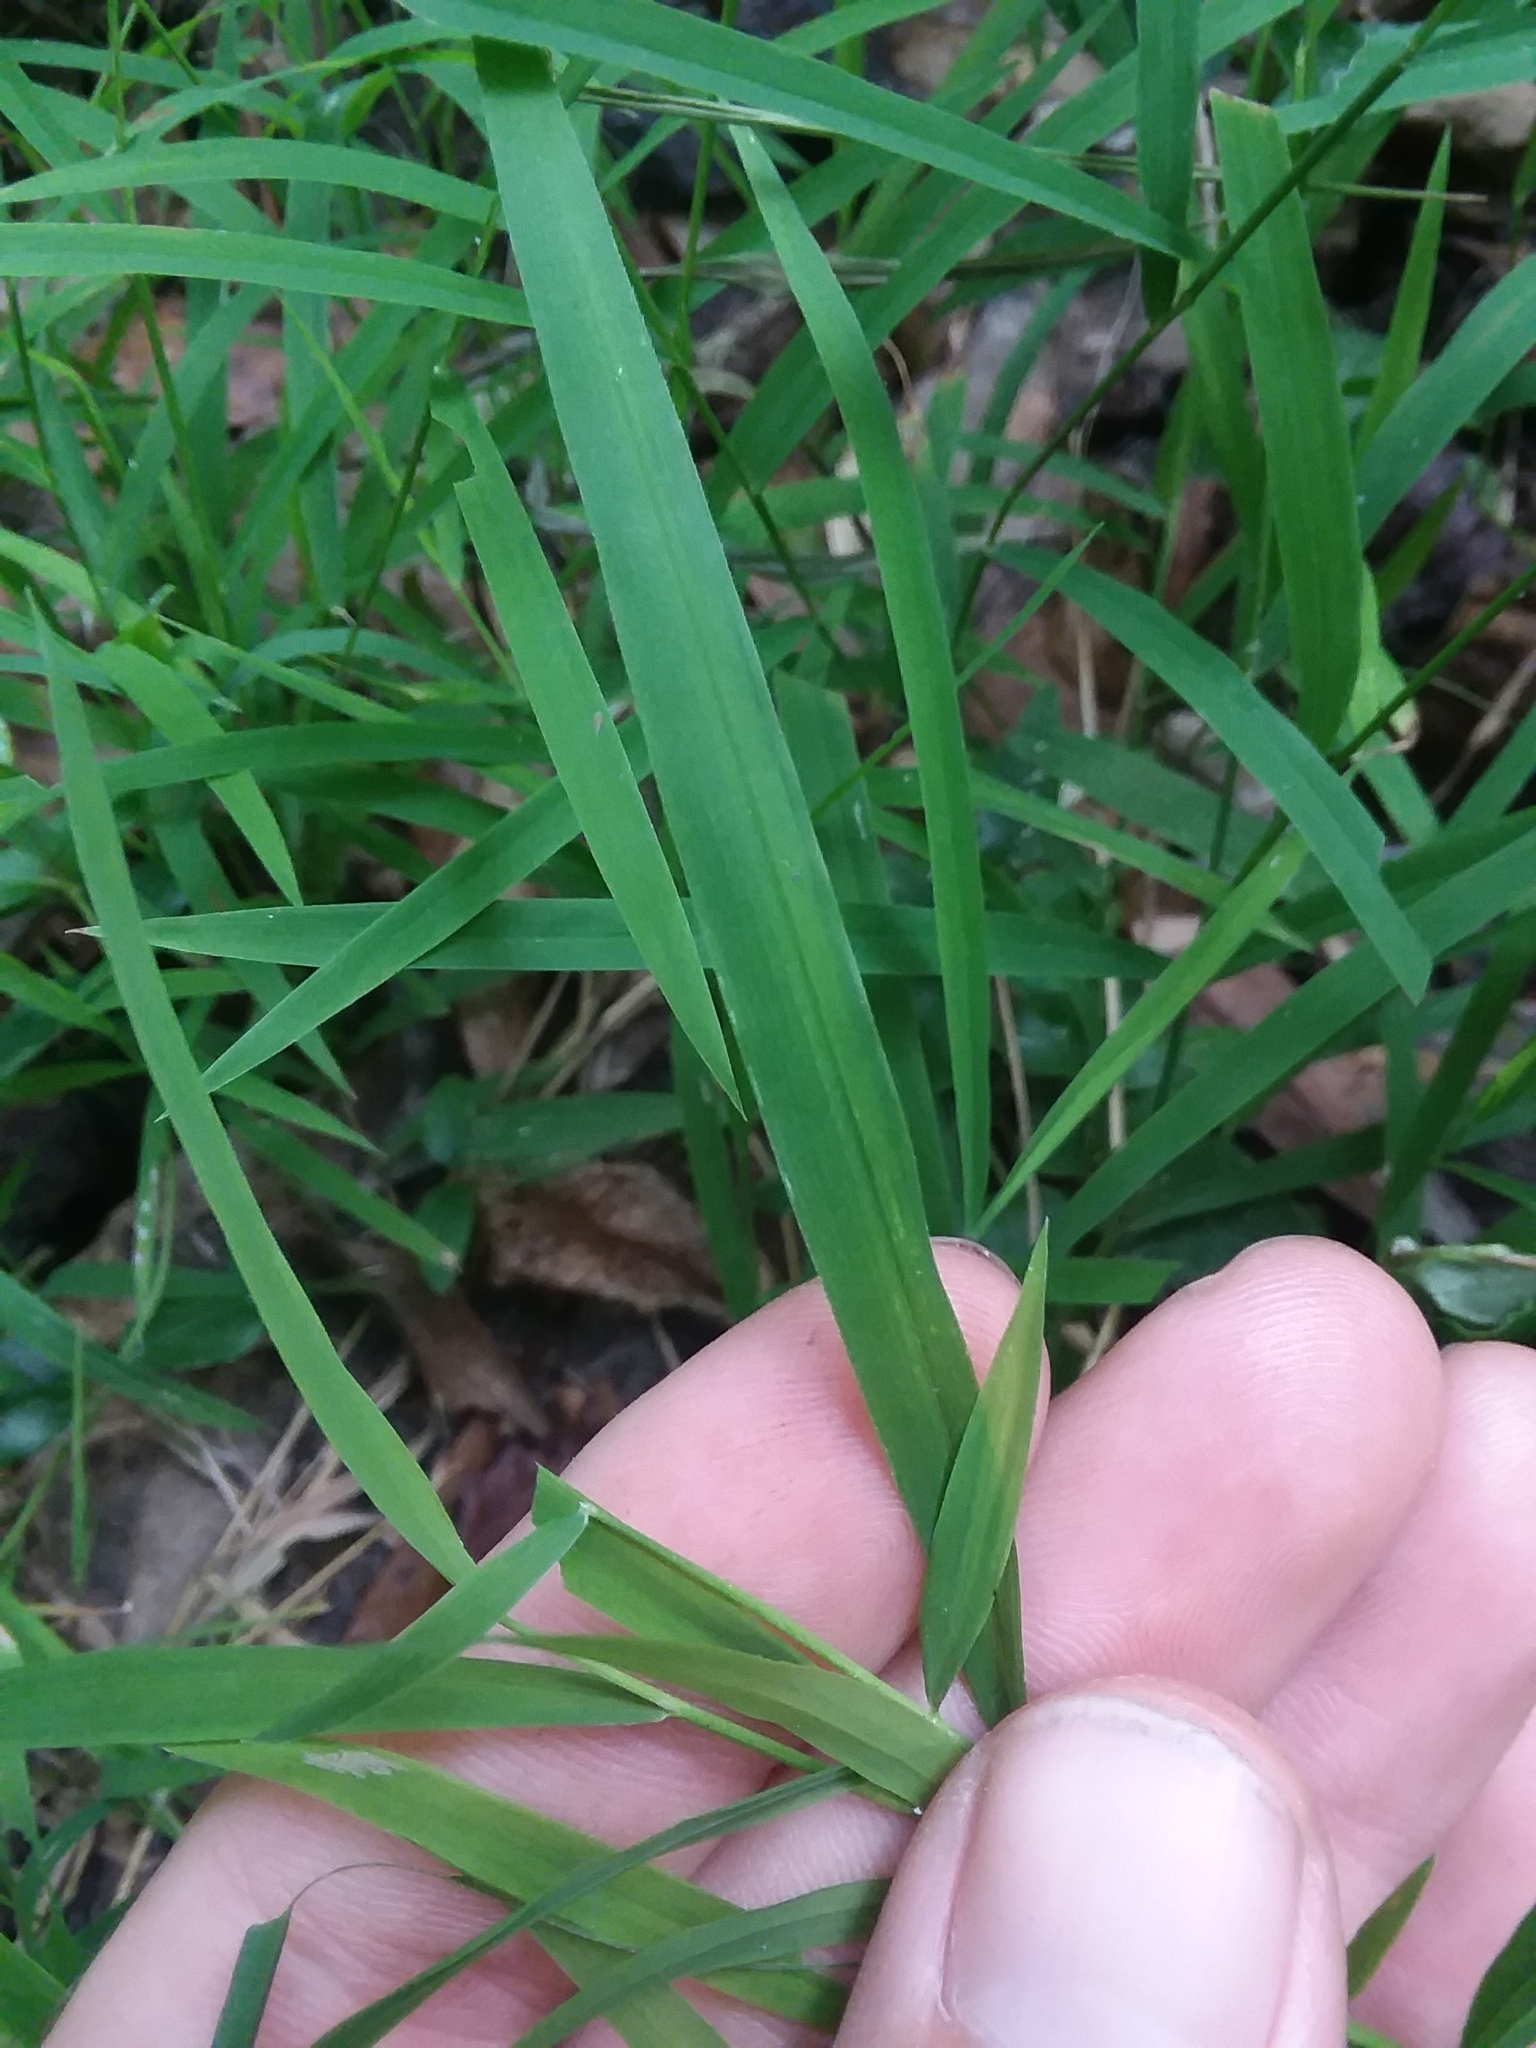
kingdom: Plantae
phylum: Tracheophyta
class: Liliopsida
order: Poales
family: Poaceae
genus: Leersia
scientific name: Leersia virginica
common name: White cutgrass
